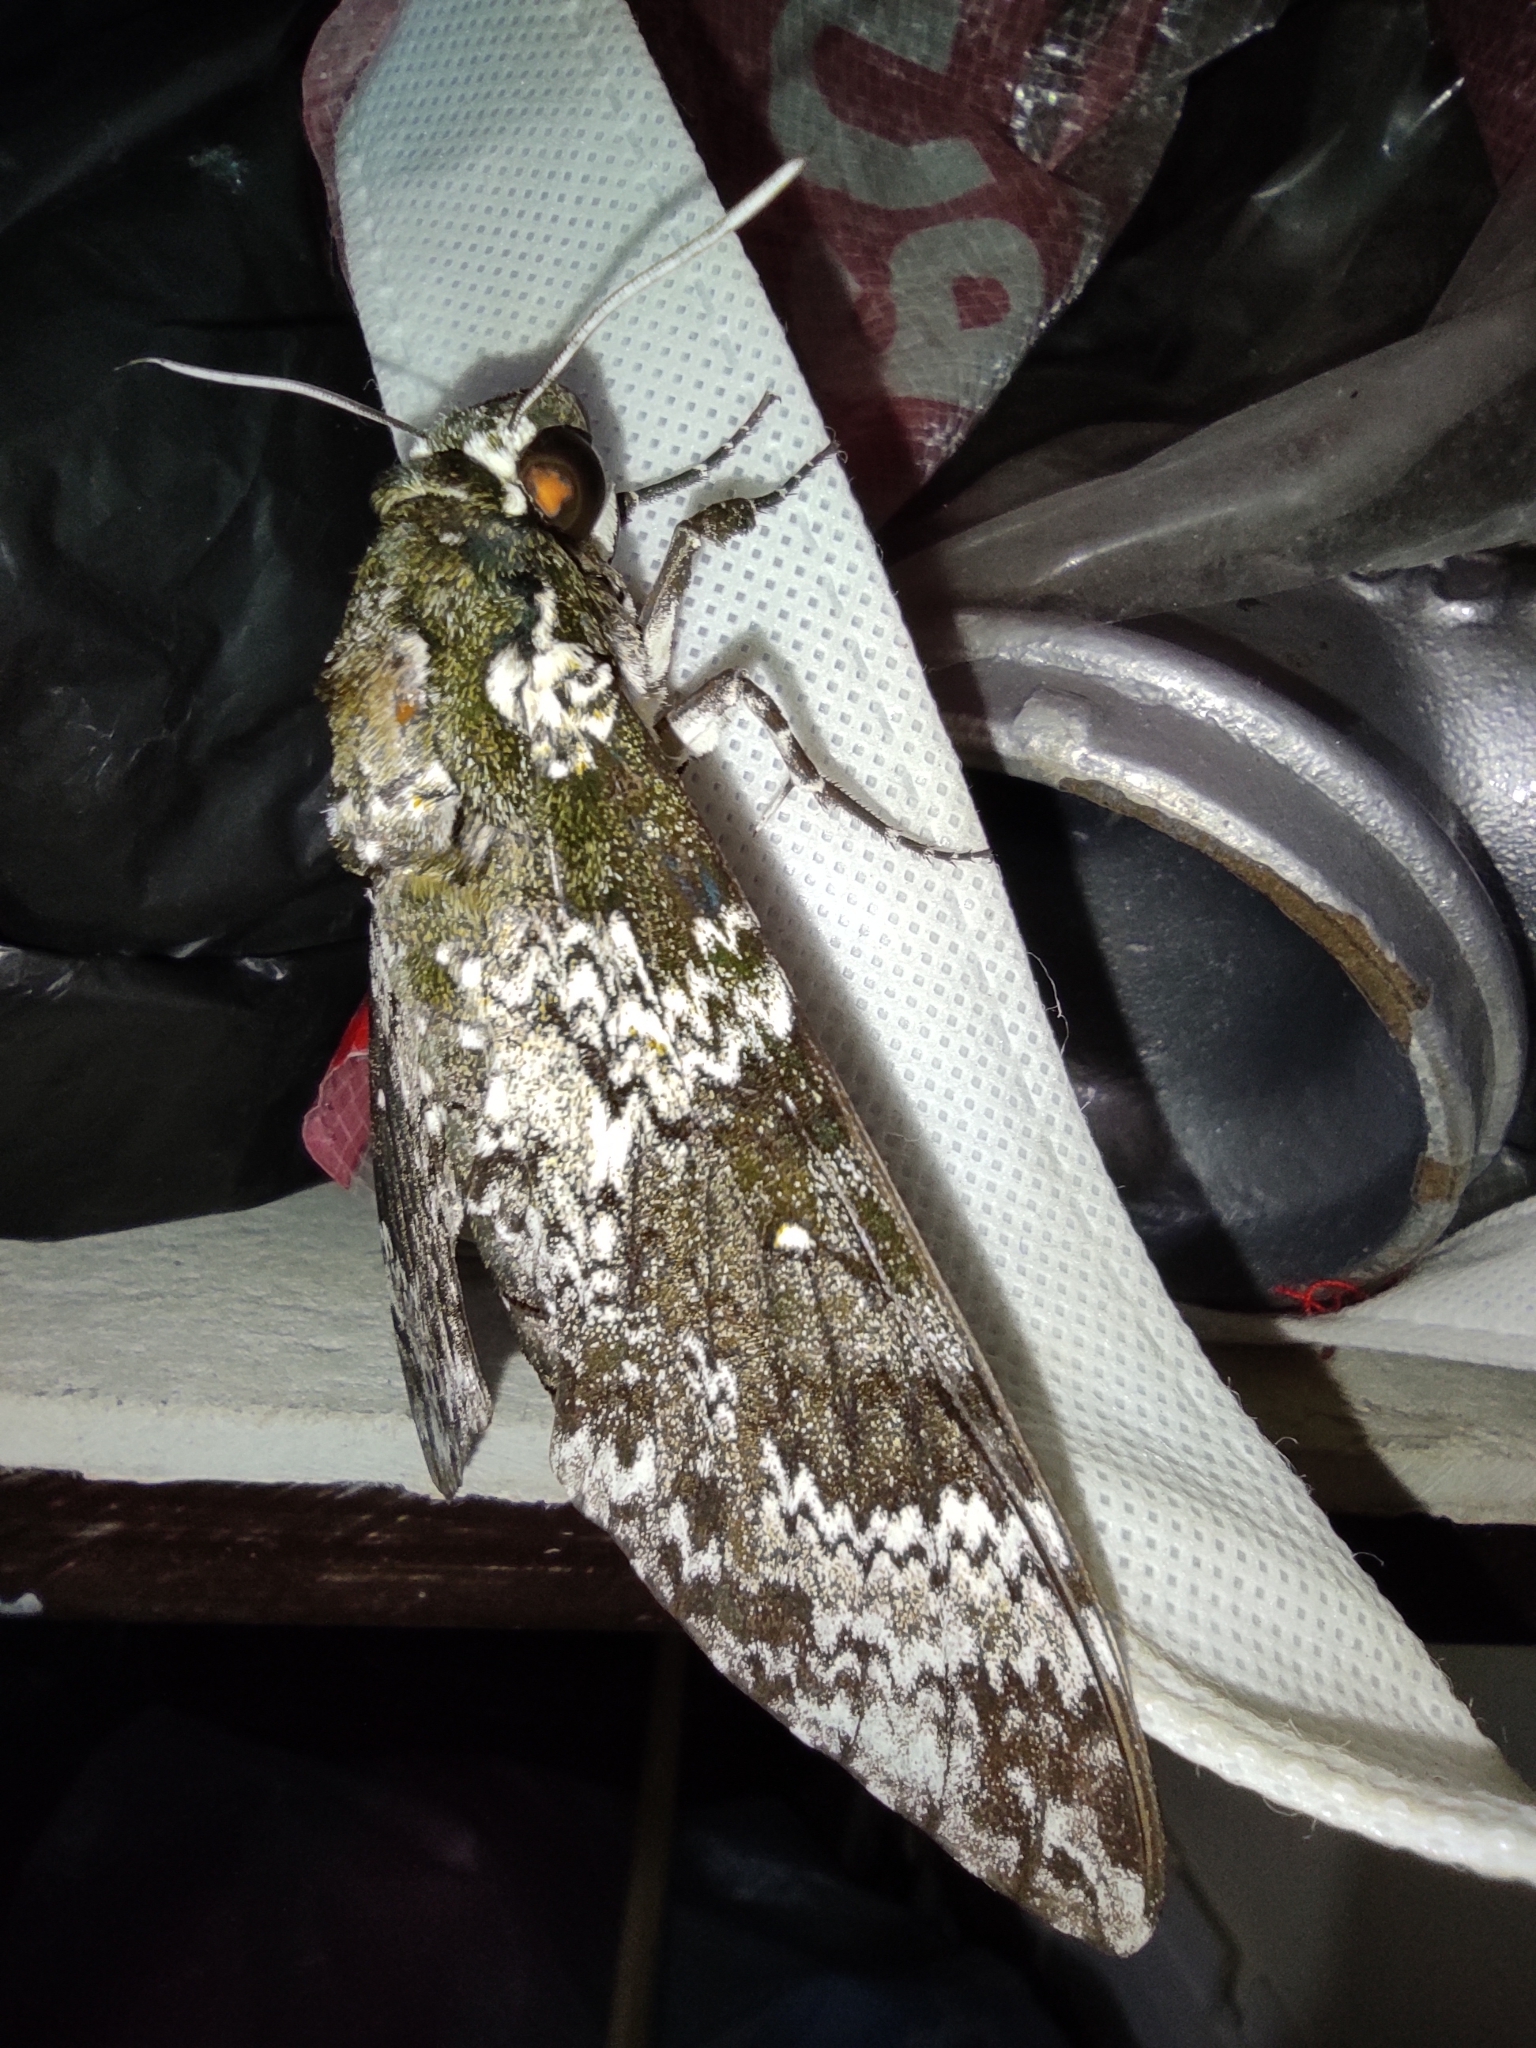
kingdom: Animalia
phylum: Arthropoda
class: Insecta
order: Lepidoptera
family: Sphingidae
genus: Manduca
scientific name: Manduca rustica
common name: Rustic sphinx
